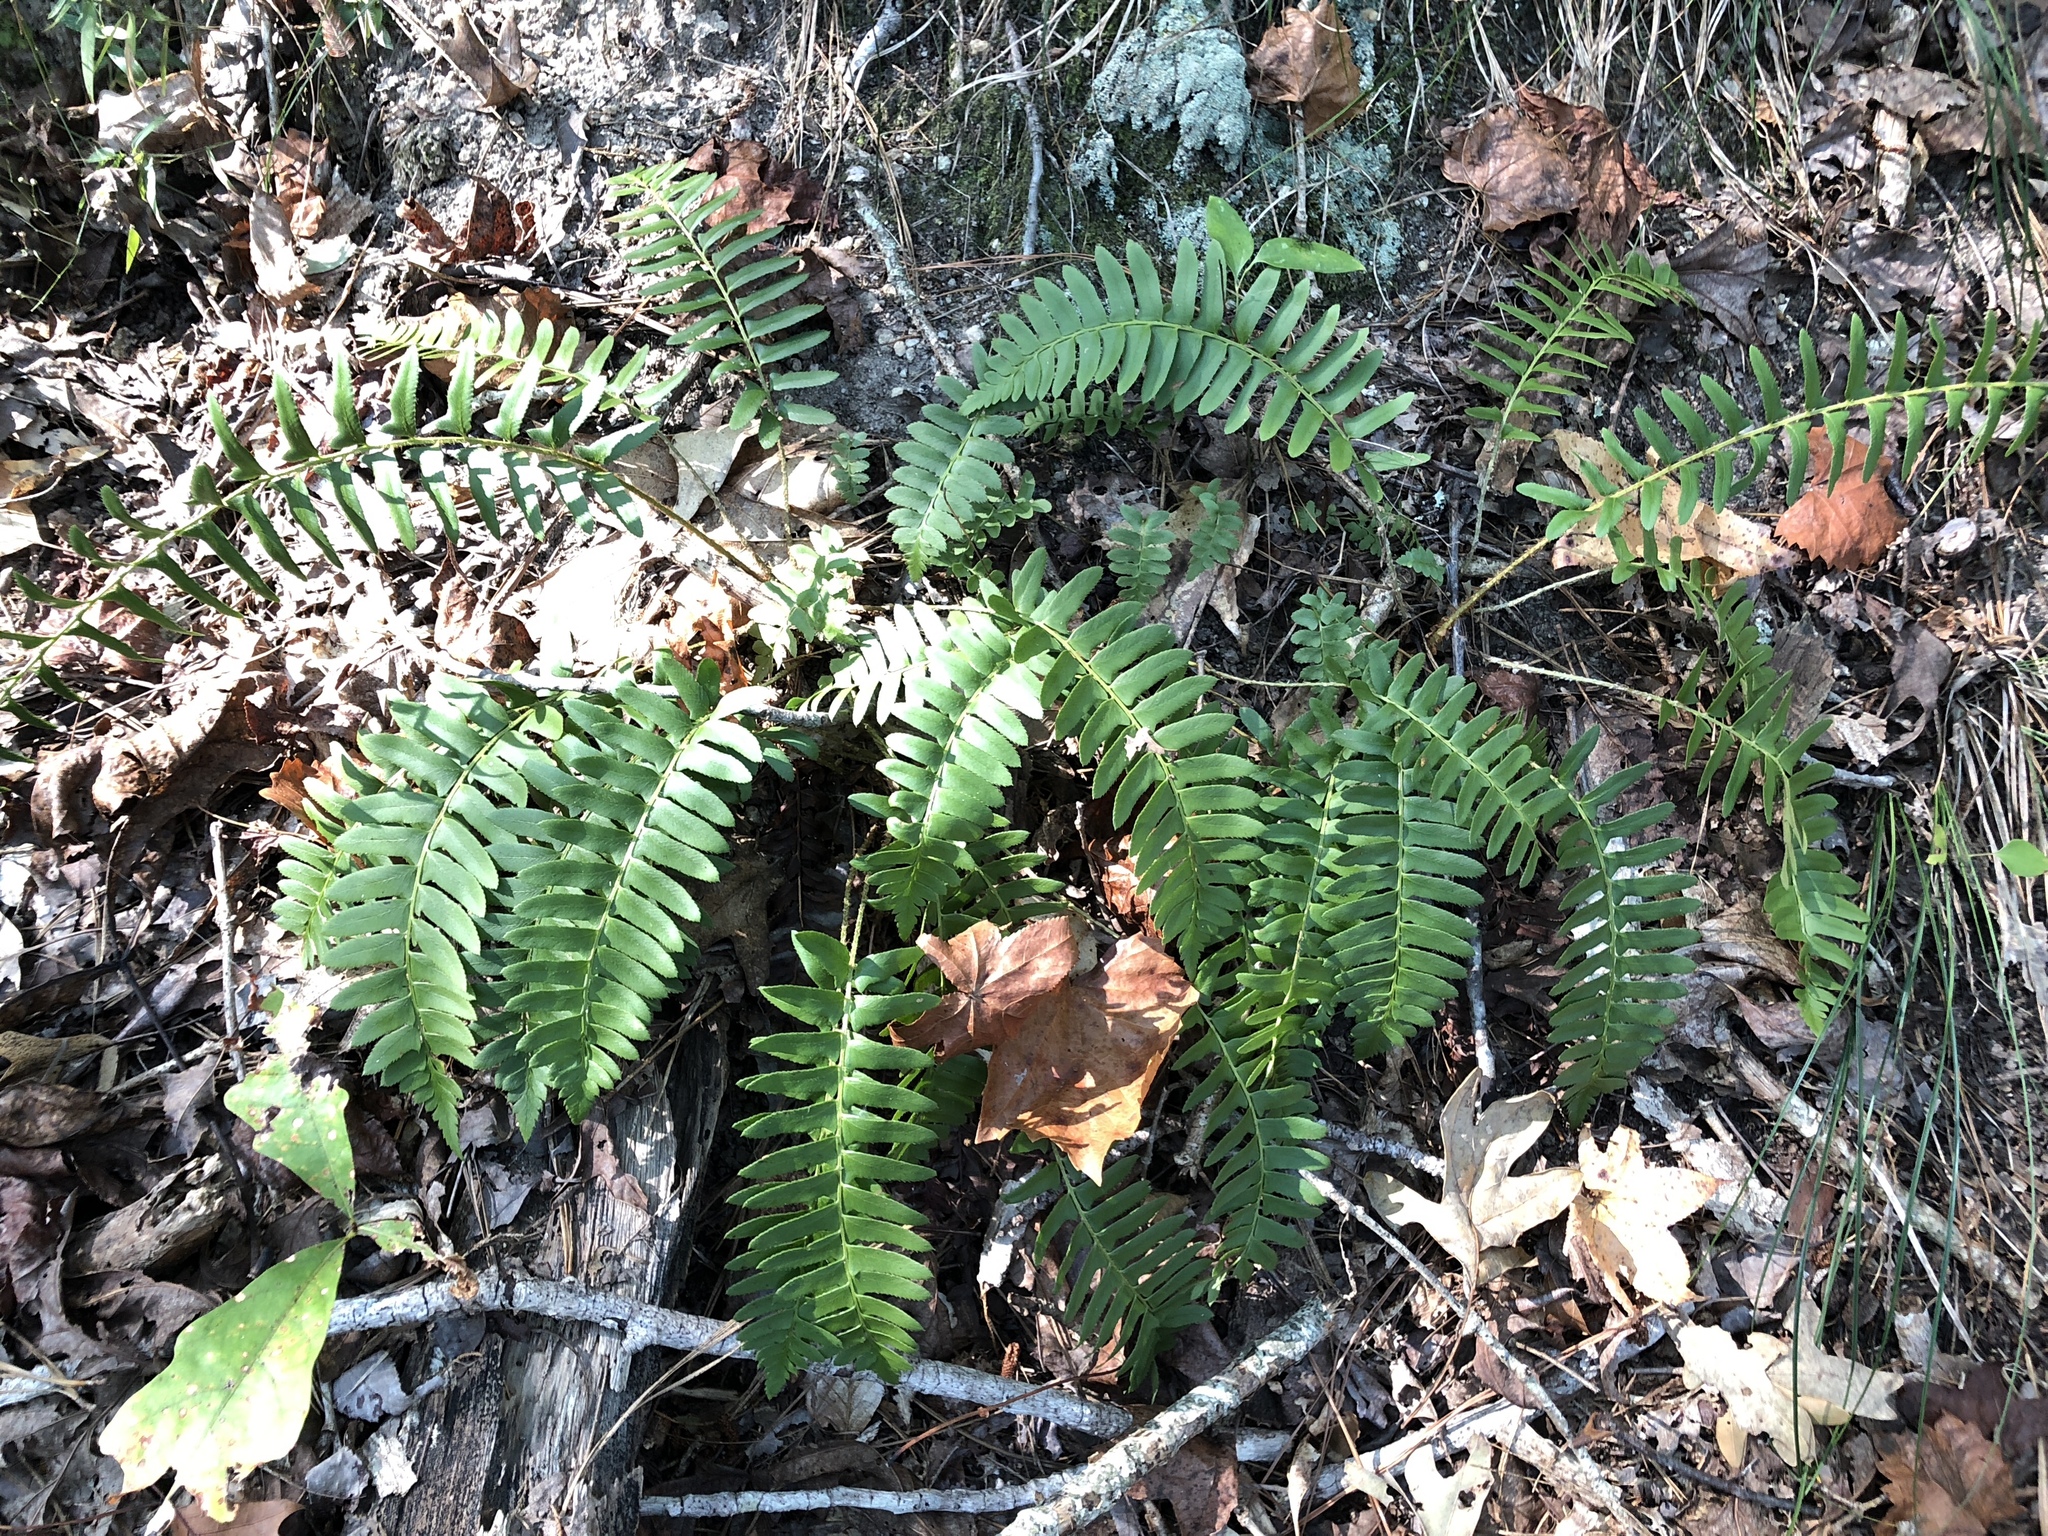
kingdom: Plantae
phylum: Tracheophyta
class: Polypodiopsida
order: Polypodiales
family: Dryopteridaceae
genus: Polystichum
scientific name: Polystichum acrostichoides
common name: Christmas fern
